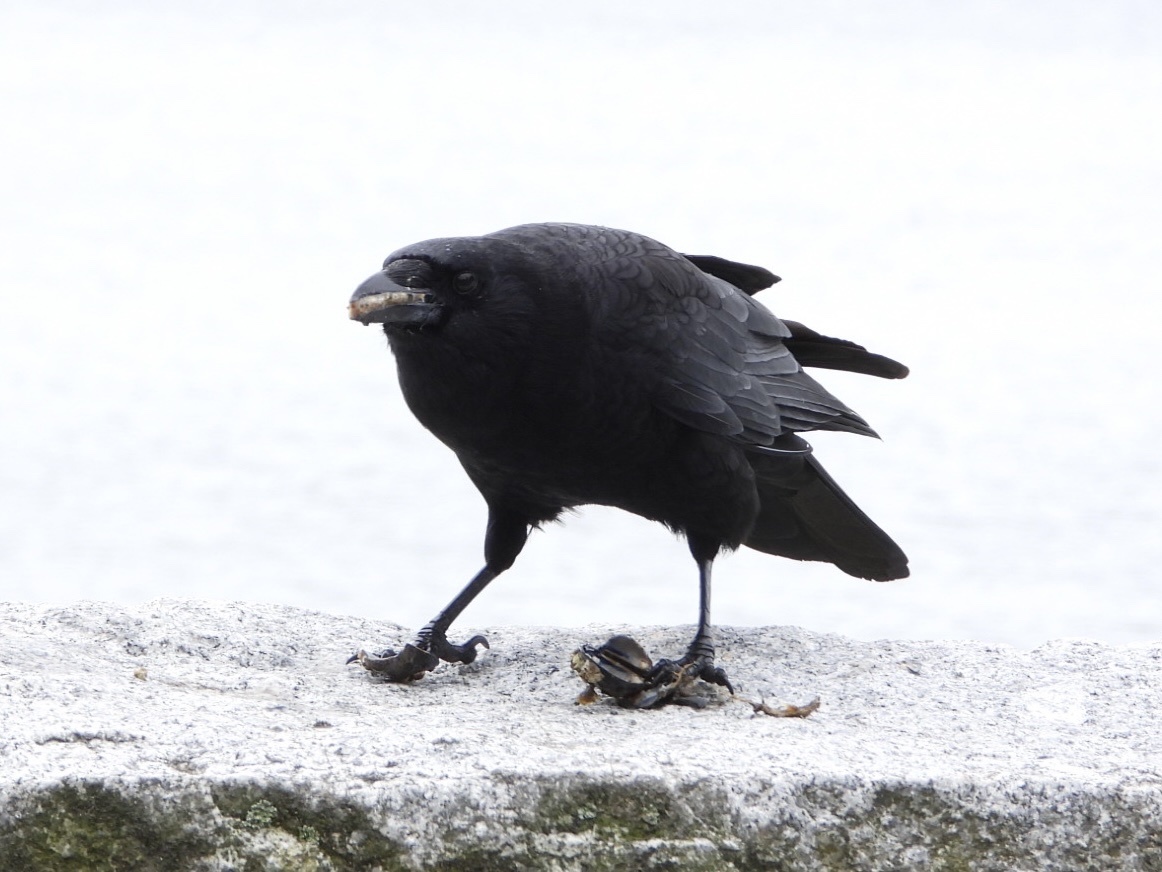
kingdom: Animalia
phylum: Chordata
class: Aves
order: Passeriformes
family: Corvidae
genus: Corvus
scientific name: Corvus brachyrhynchos
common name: American crow
